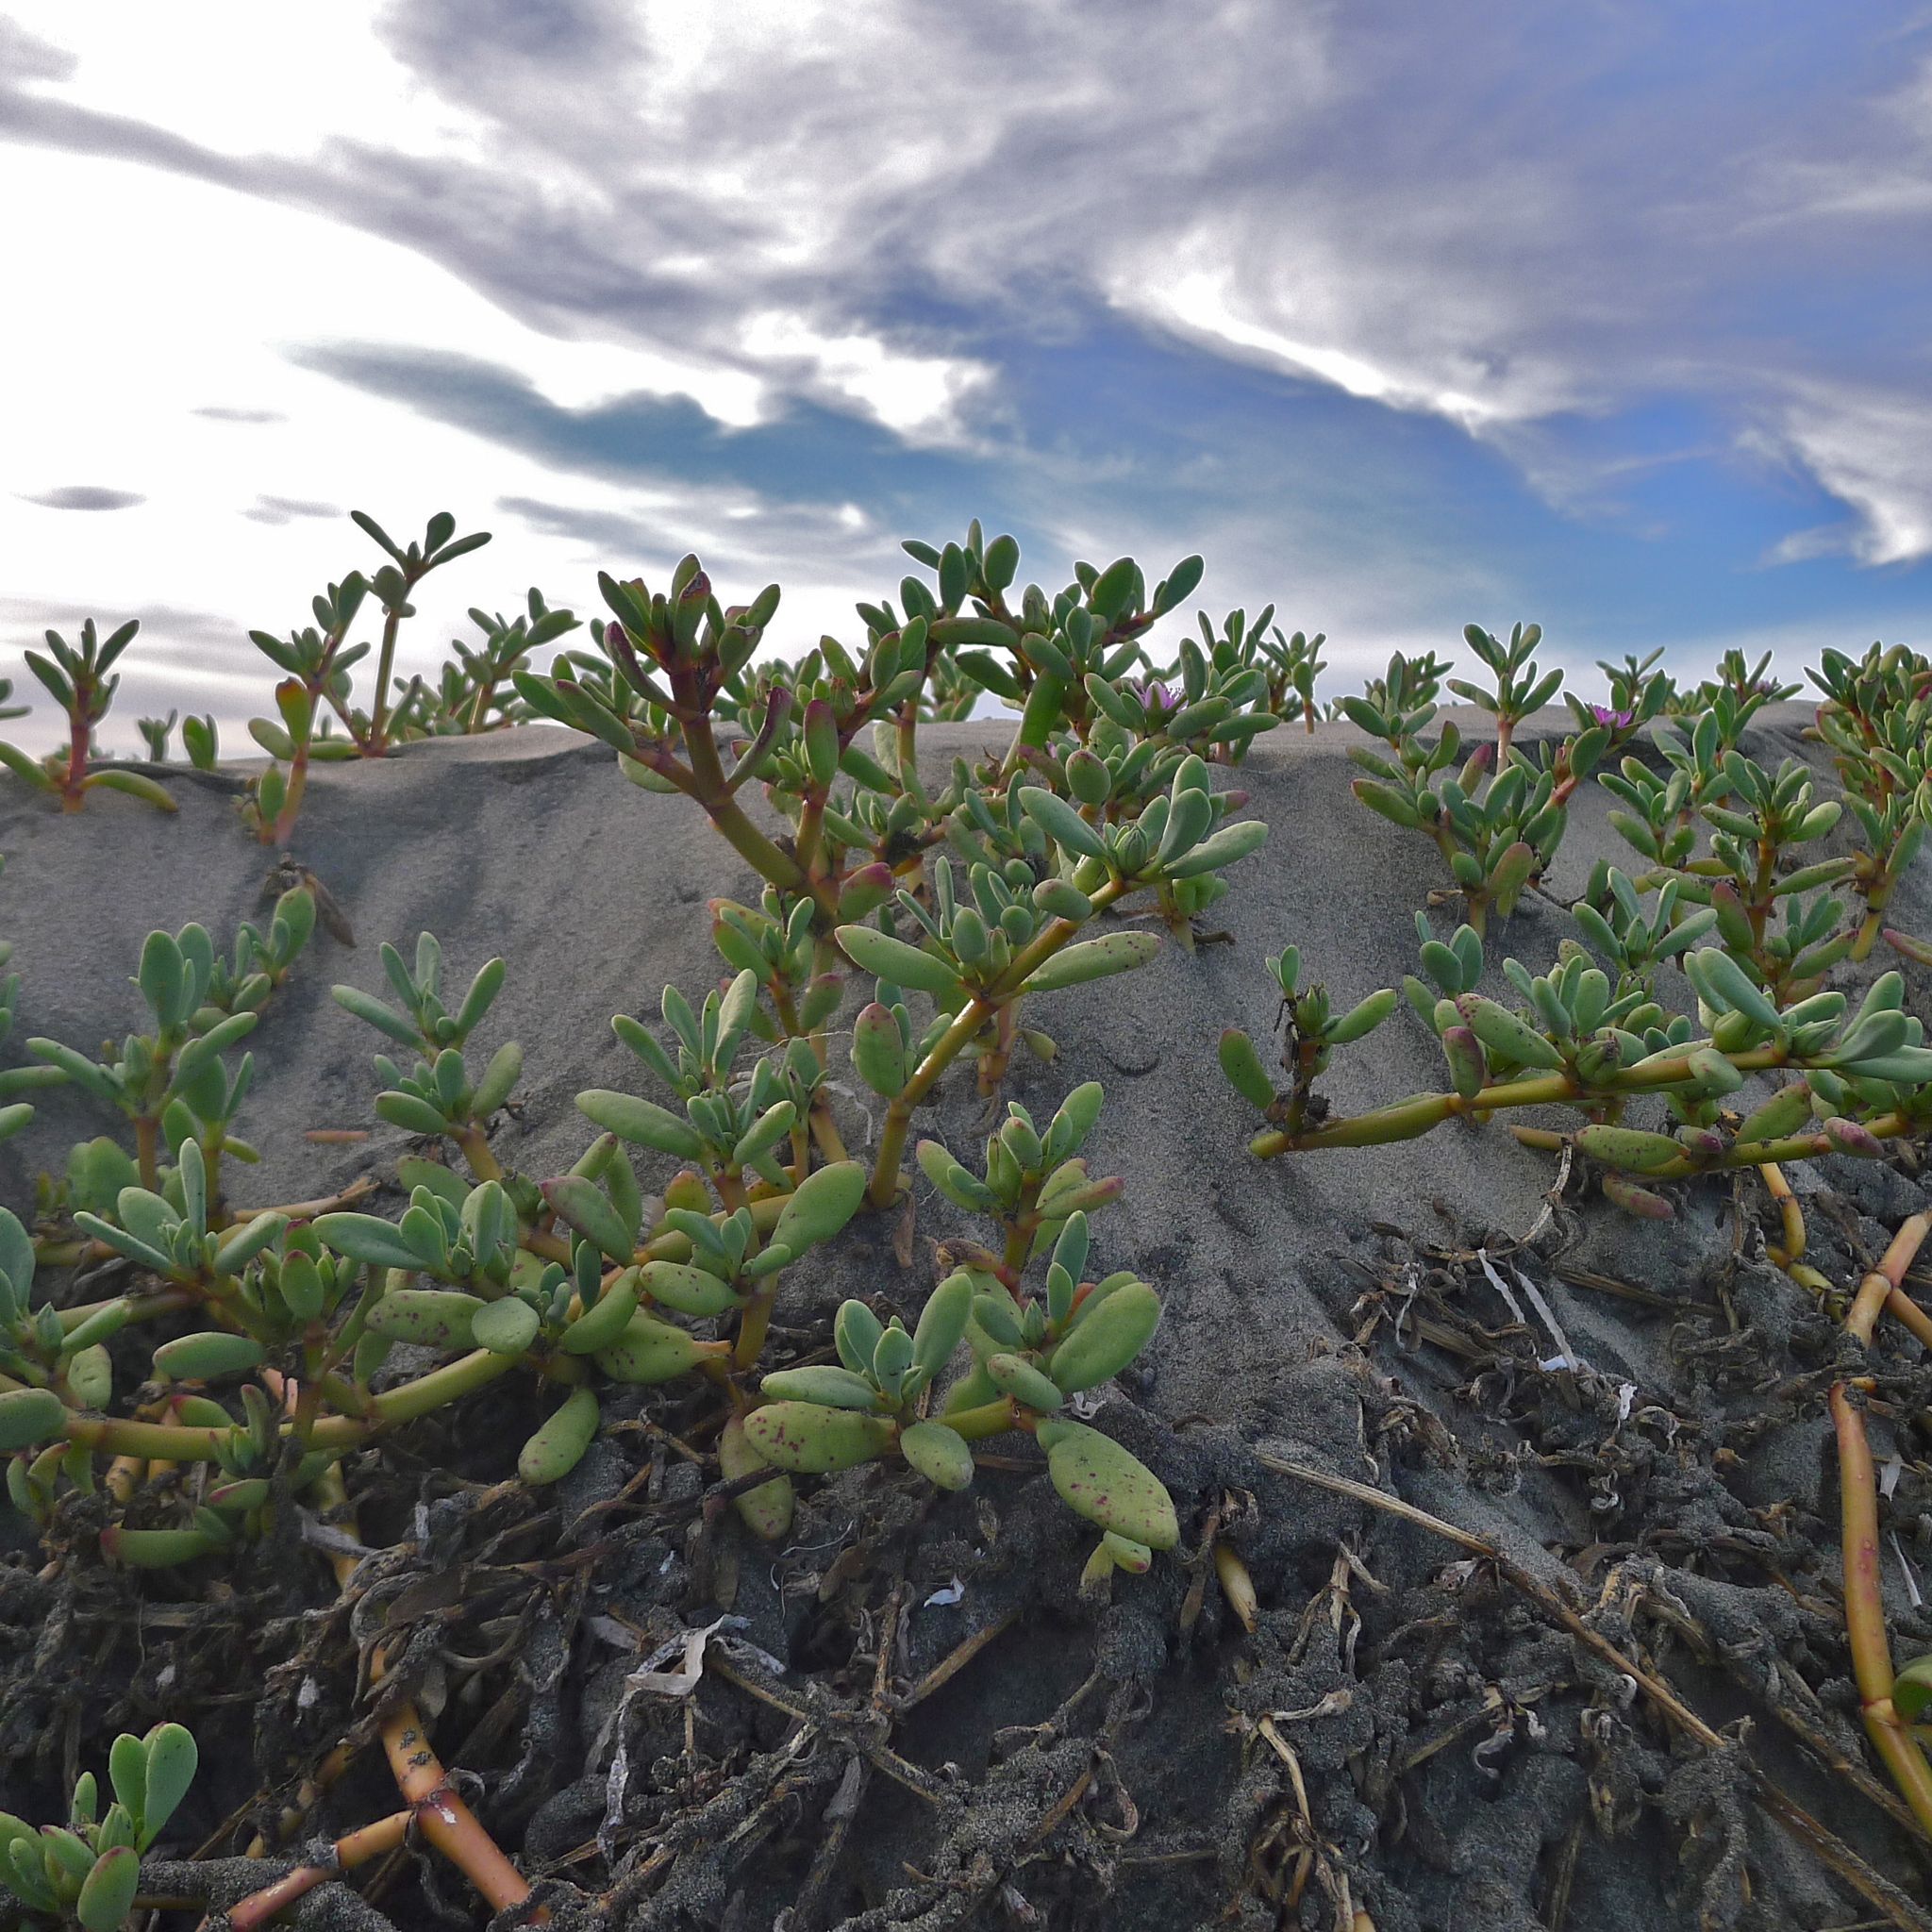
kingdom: Plantae
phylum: Tracheophyta
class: Magnoliopsida
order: Caryophyllales
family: Aizoaceae
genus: Sesuvium
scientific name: Sesuvium portulacastrum
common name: Sea-purslane
